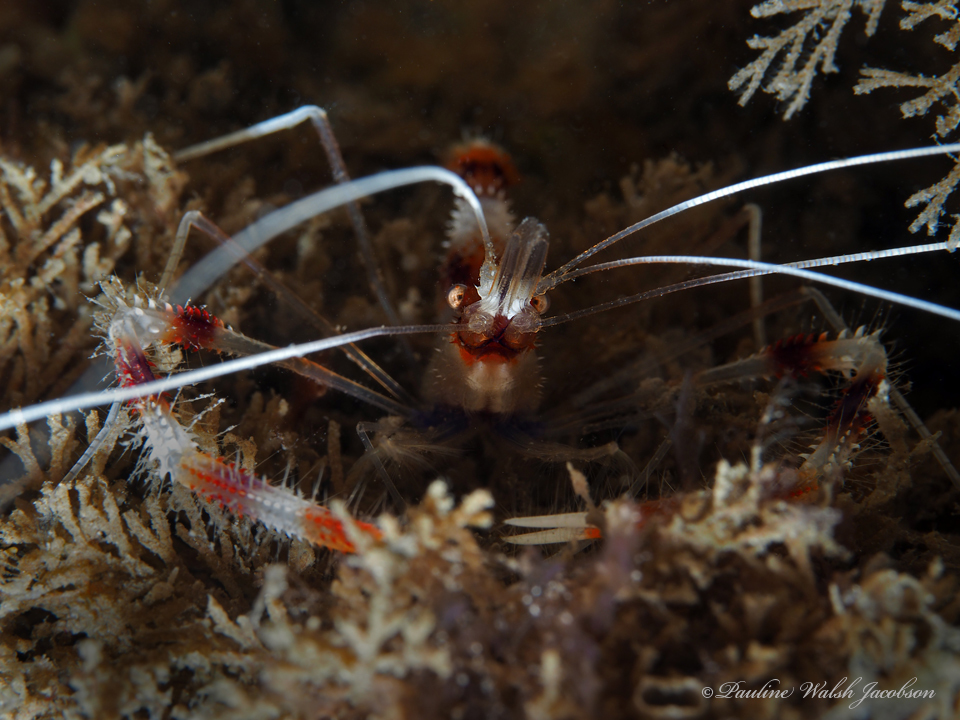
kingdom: Animalia
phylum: Arthropoda
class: Malacostraca
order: Decapoda
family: Stenopodidae
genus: Stenopus
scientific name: Stenopus hispidus
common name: Banded coral shrimp
